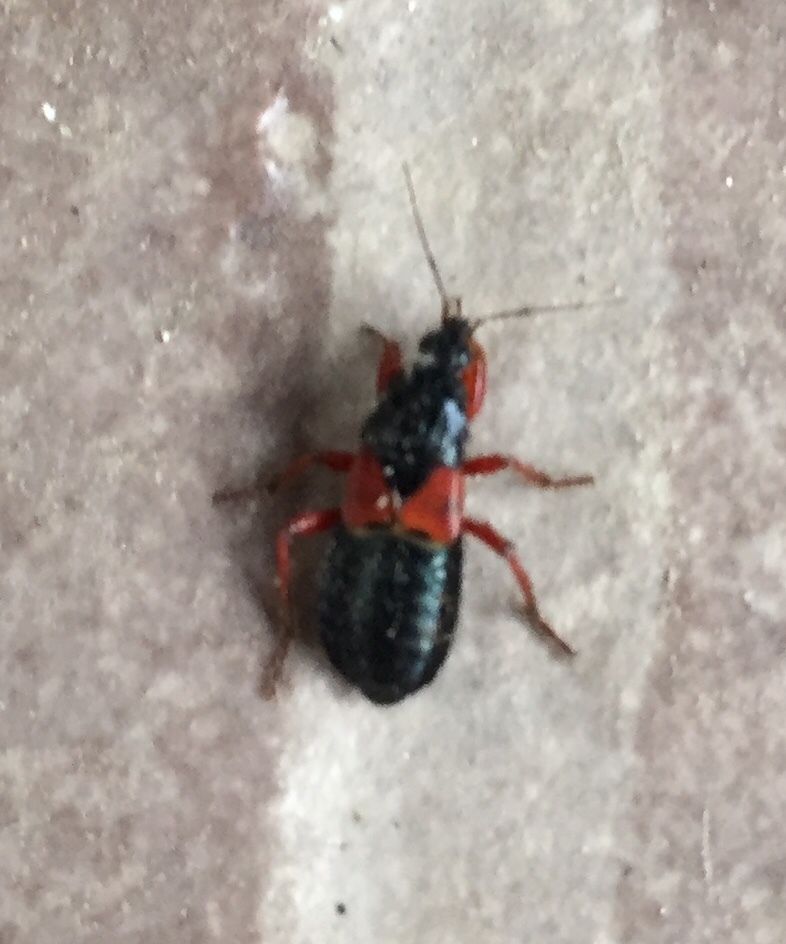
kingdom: Animalia
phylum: Arthropoda
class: Insecta
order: Hemiptera
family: Nabidae
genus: Prostemma
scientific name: Prostemma guttula
